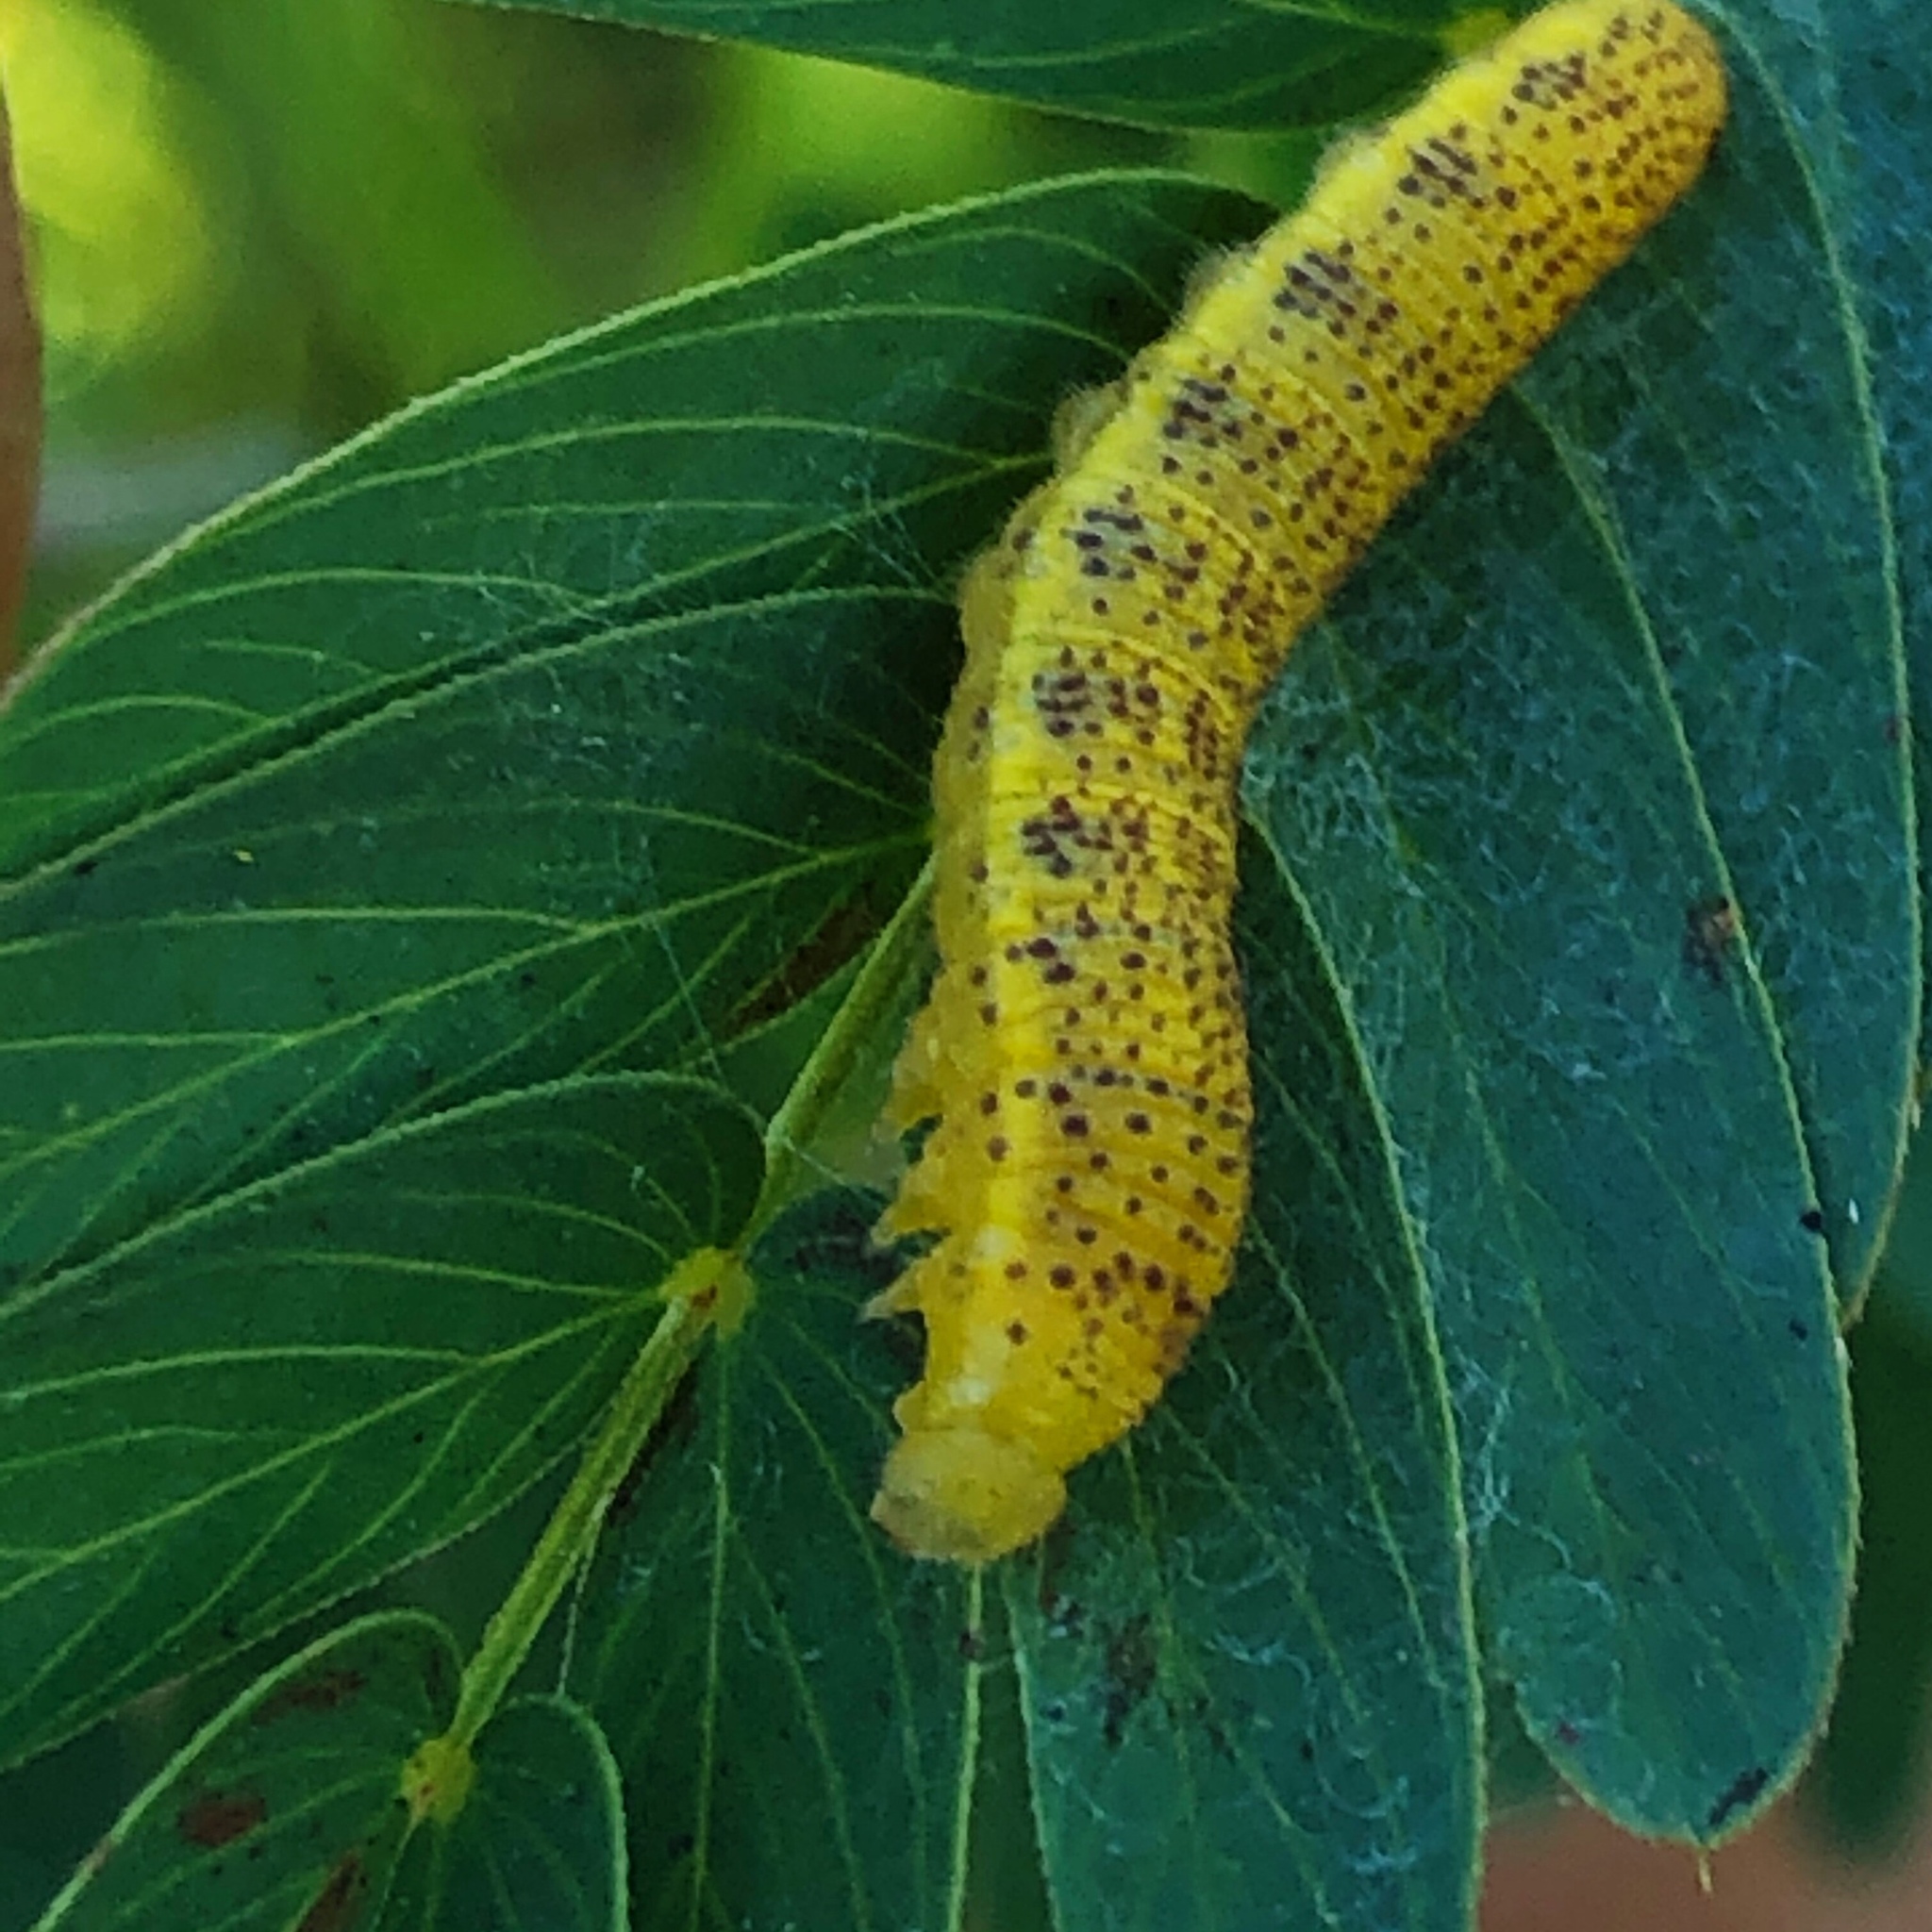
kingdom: Animalia
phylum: Arthropoda
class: Insecta
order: Lepidoptera
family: Pieridae
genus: Phoebis
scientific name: Phoebis sennae
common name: Cloudless sulphur
